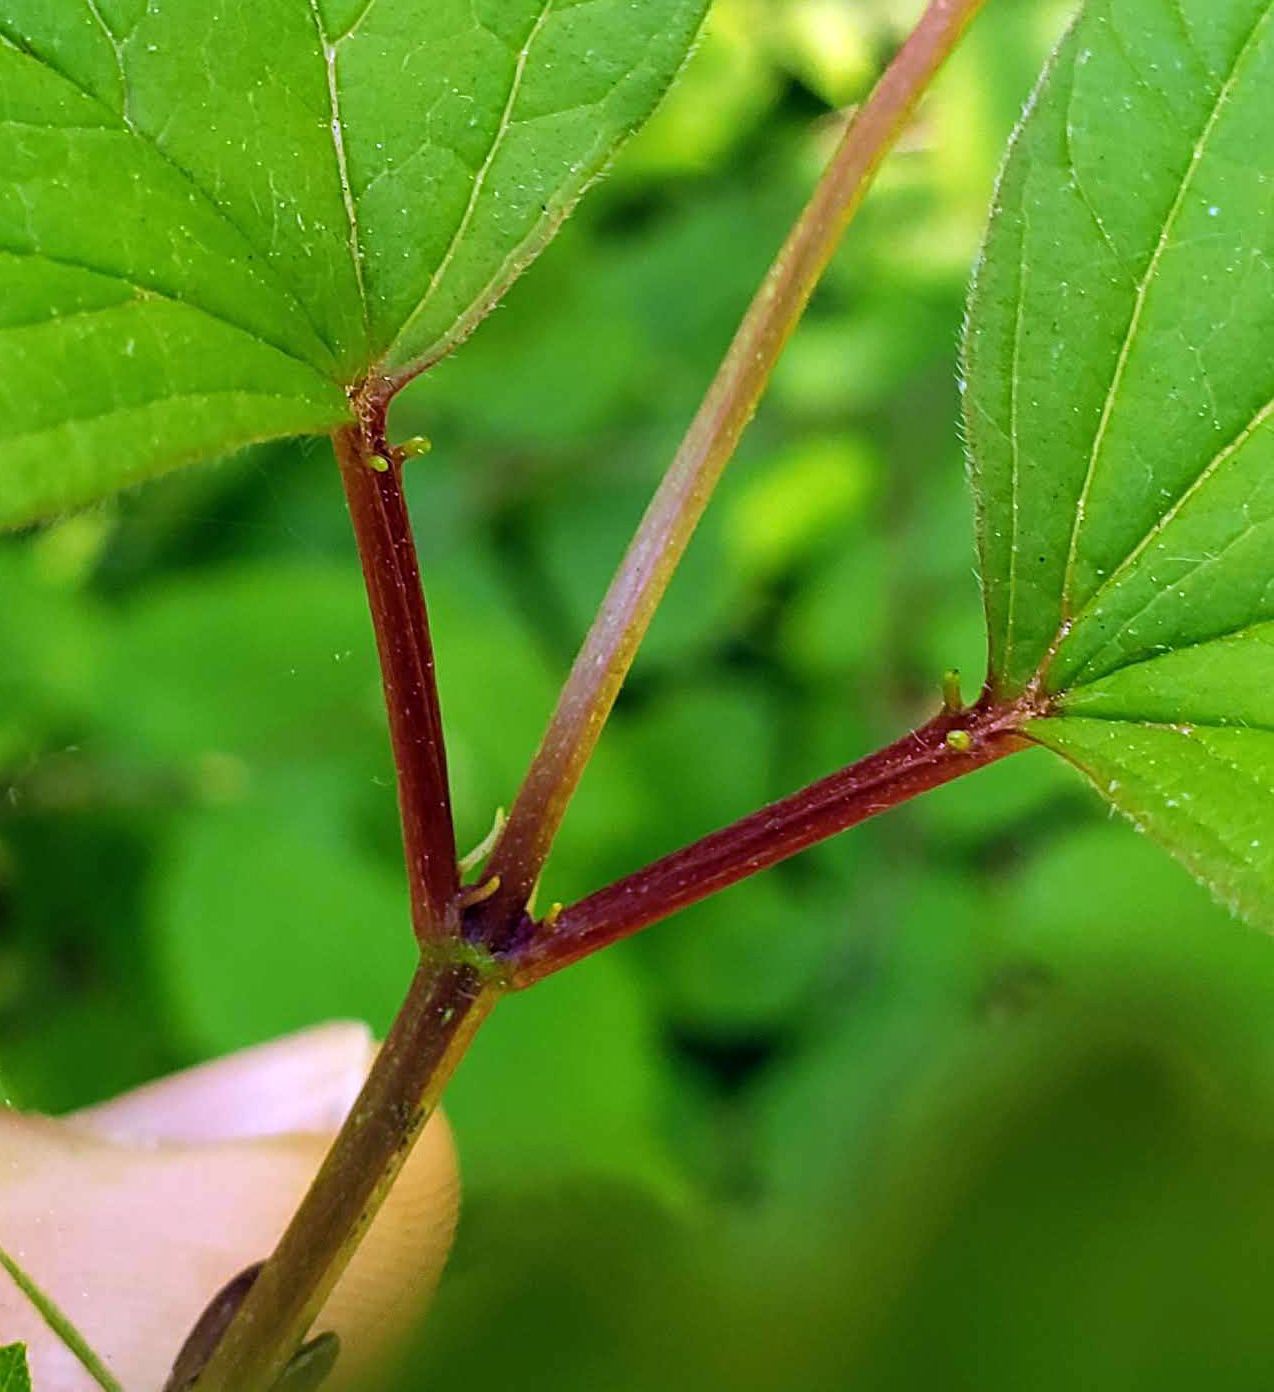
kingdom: Plantae
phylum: Tracheophyta
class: Magnoliopsida
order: Dipsacales
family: Viburnaceae
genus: Viburnum
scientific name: Viburnum trilobum
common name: American cranberrybush
